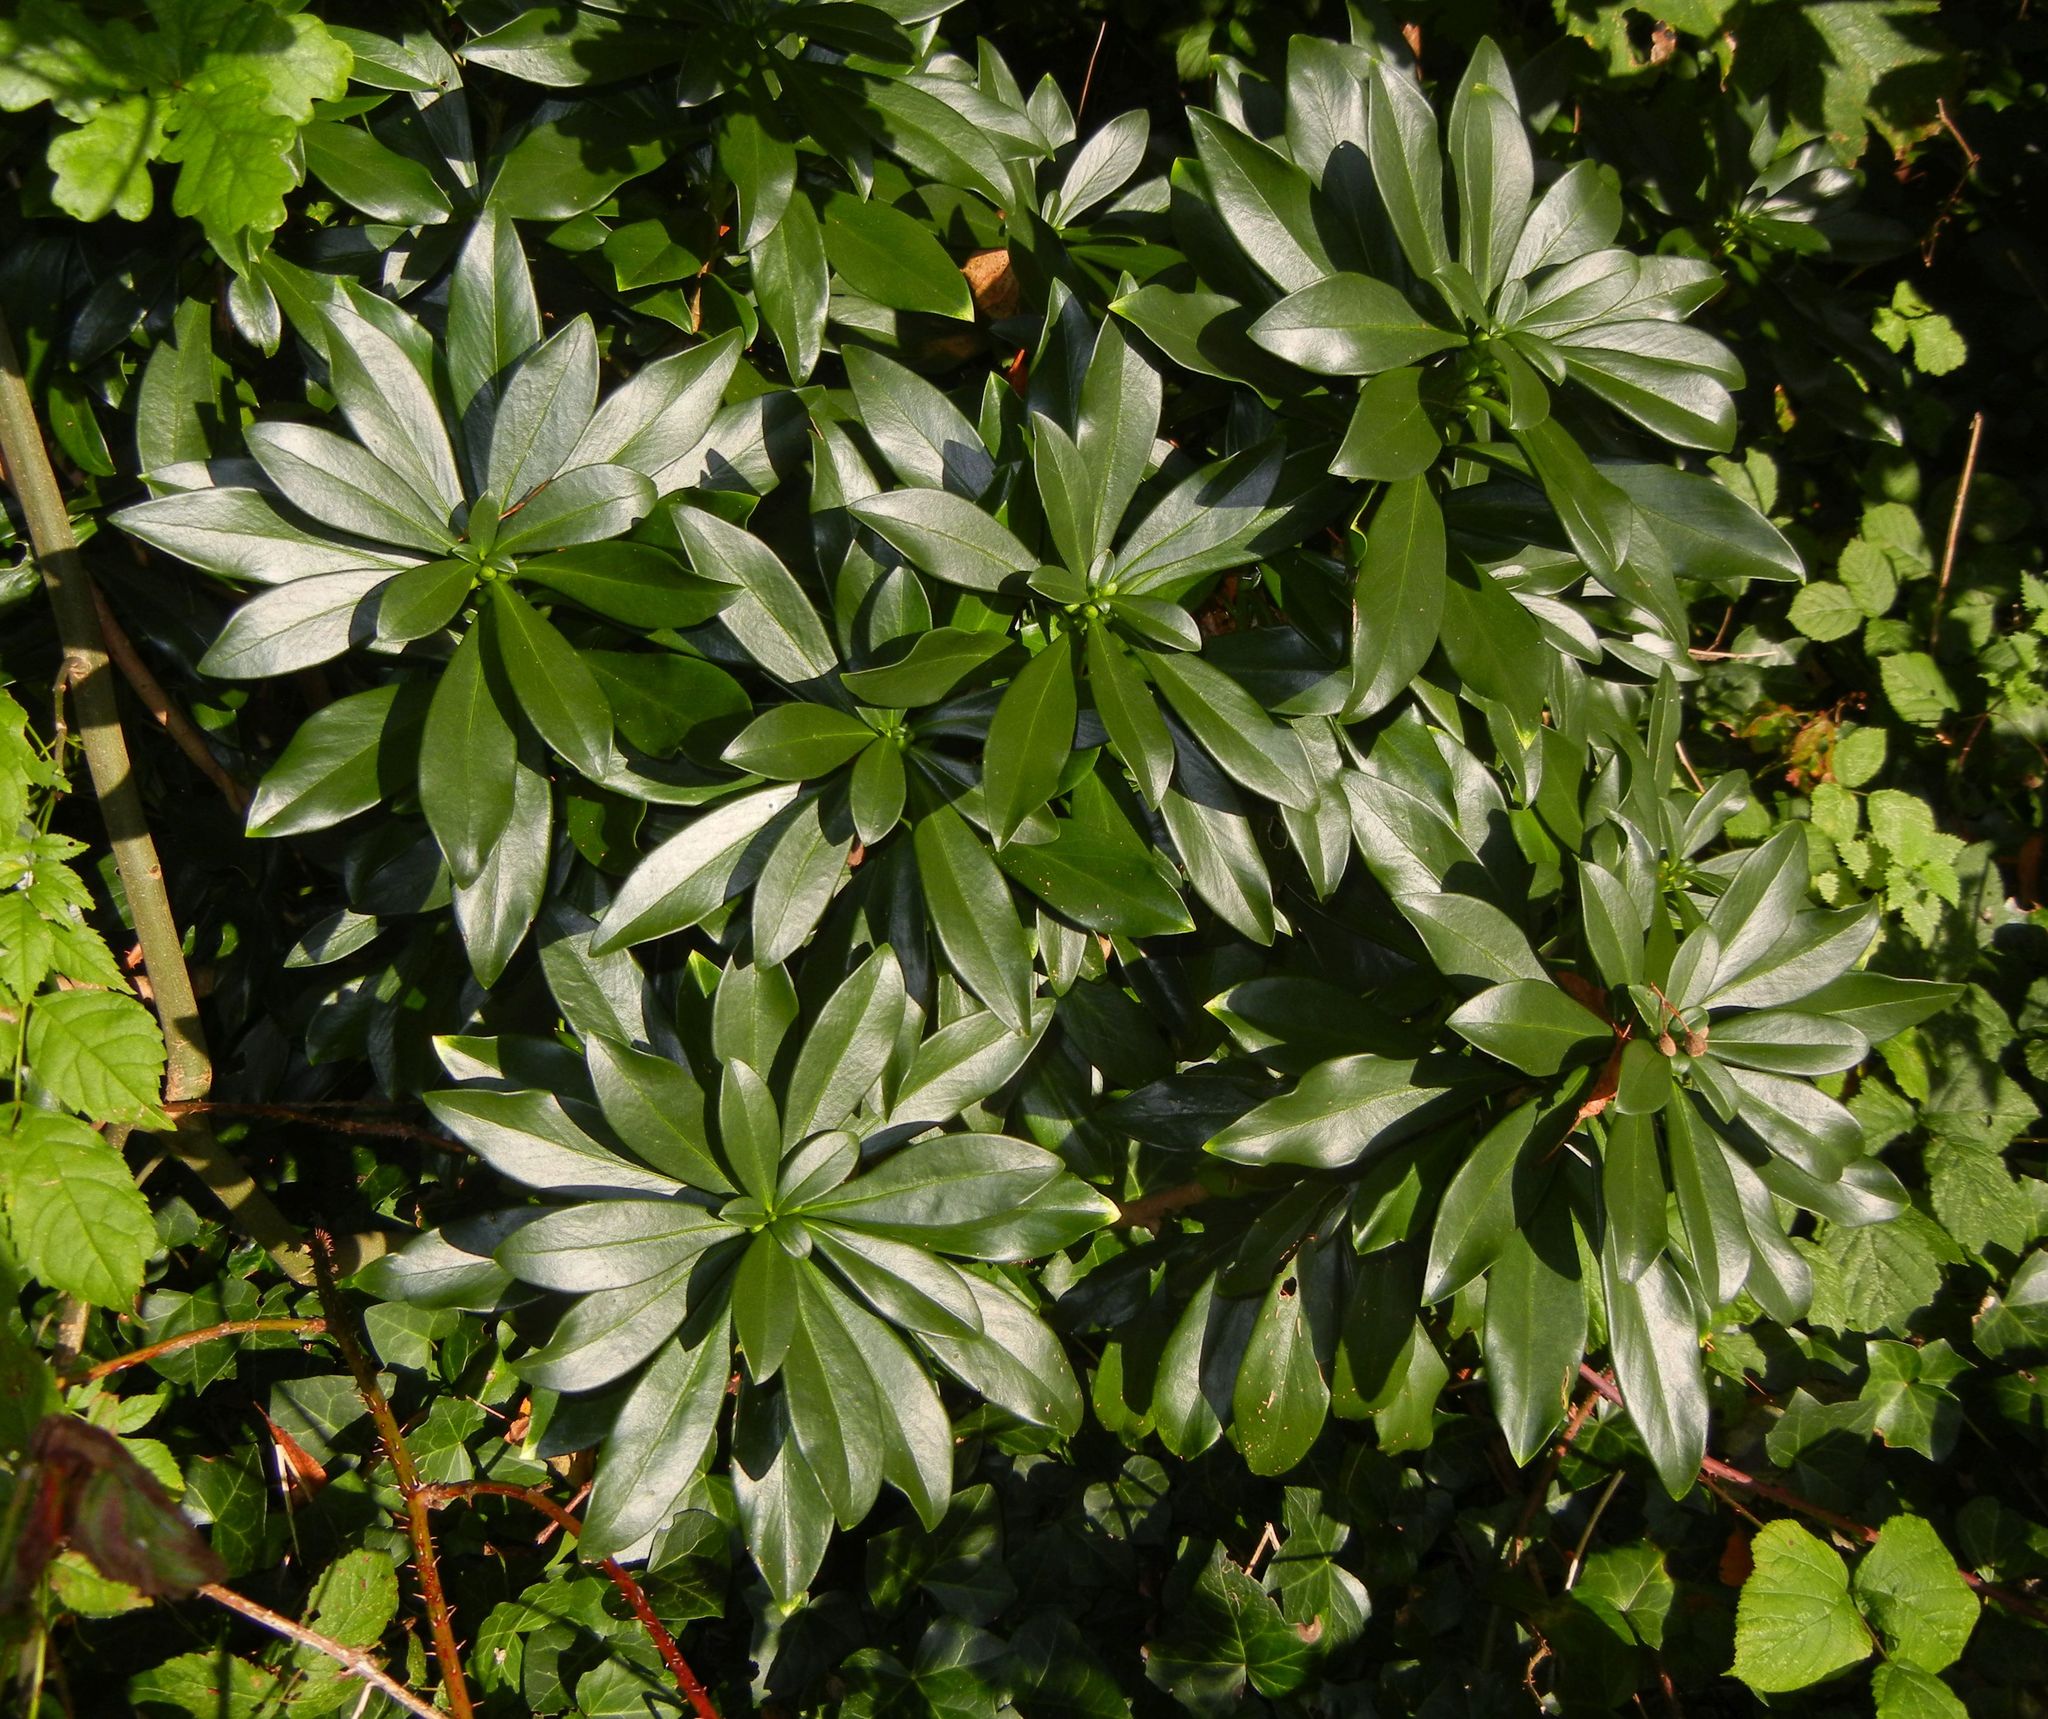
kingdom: Plantae
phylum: Tracheophyta
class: Magnoliopsida
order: Malvales
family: Thymelaeaceae
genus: Daphne
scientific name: Daphne laureola
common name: Spurge-laurel
